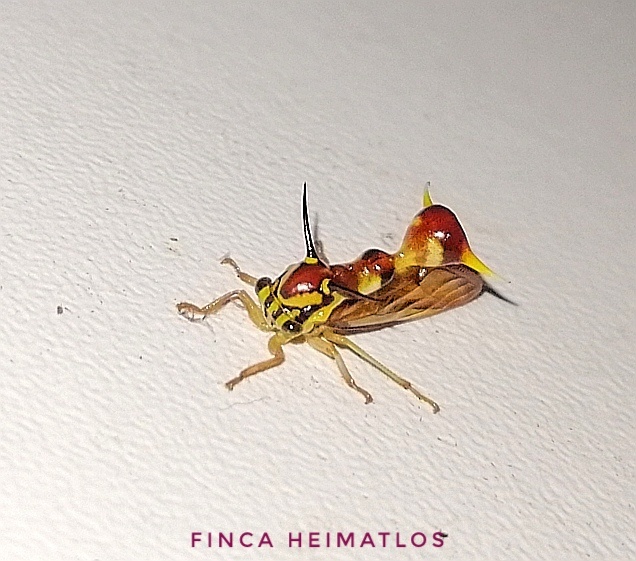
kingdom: Animalia
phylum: Arthropoda
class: Insecta
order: Hemiptera
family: Membracidae
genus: Heteronotus
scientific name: Heteronotus vespiformes
